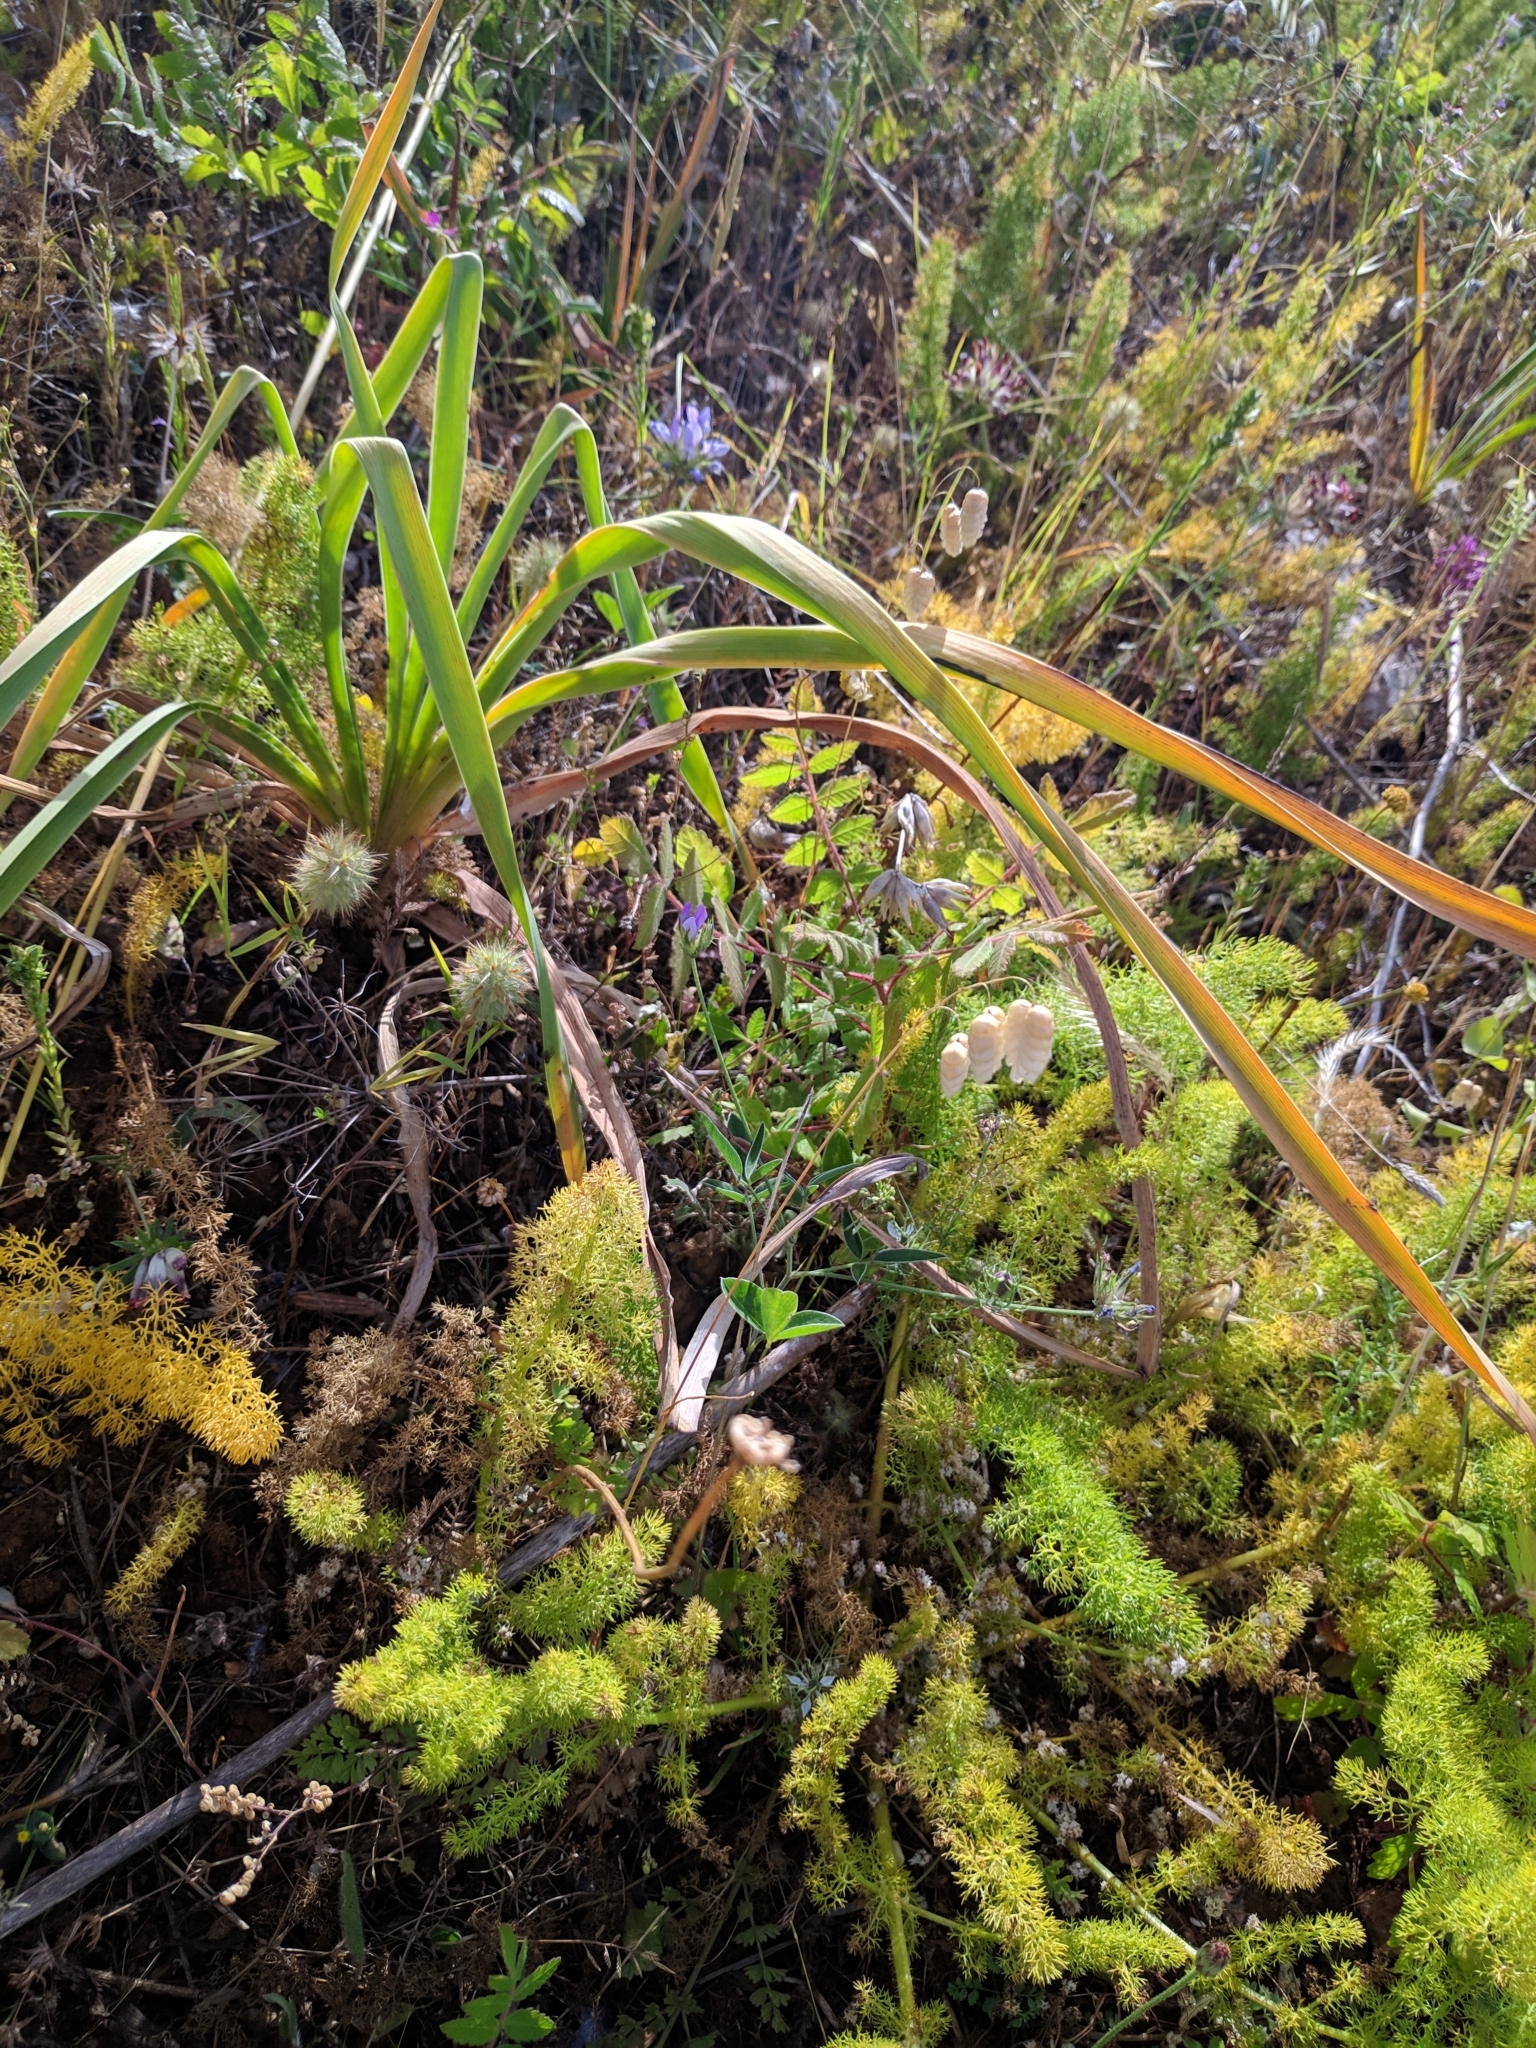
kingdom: Plantae
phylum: Tracheophyta
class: Liliopsida
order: Poales
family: Poaceae
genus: Briza
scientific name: Briza maxima
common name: Big quakinggrass
